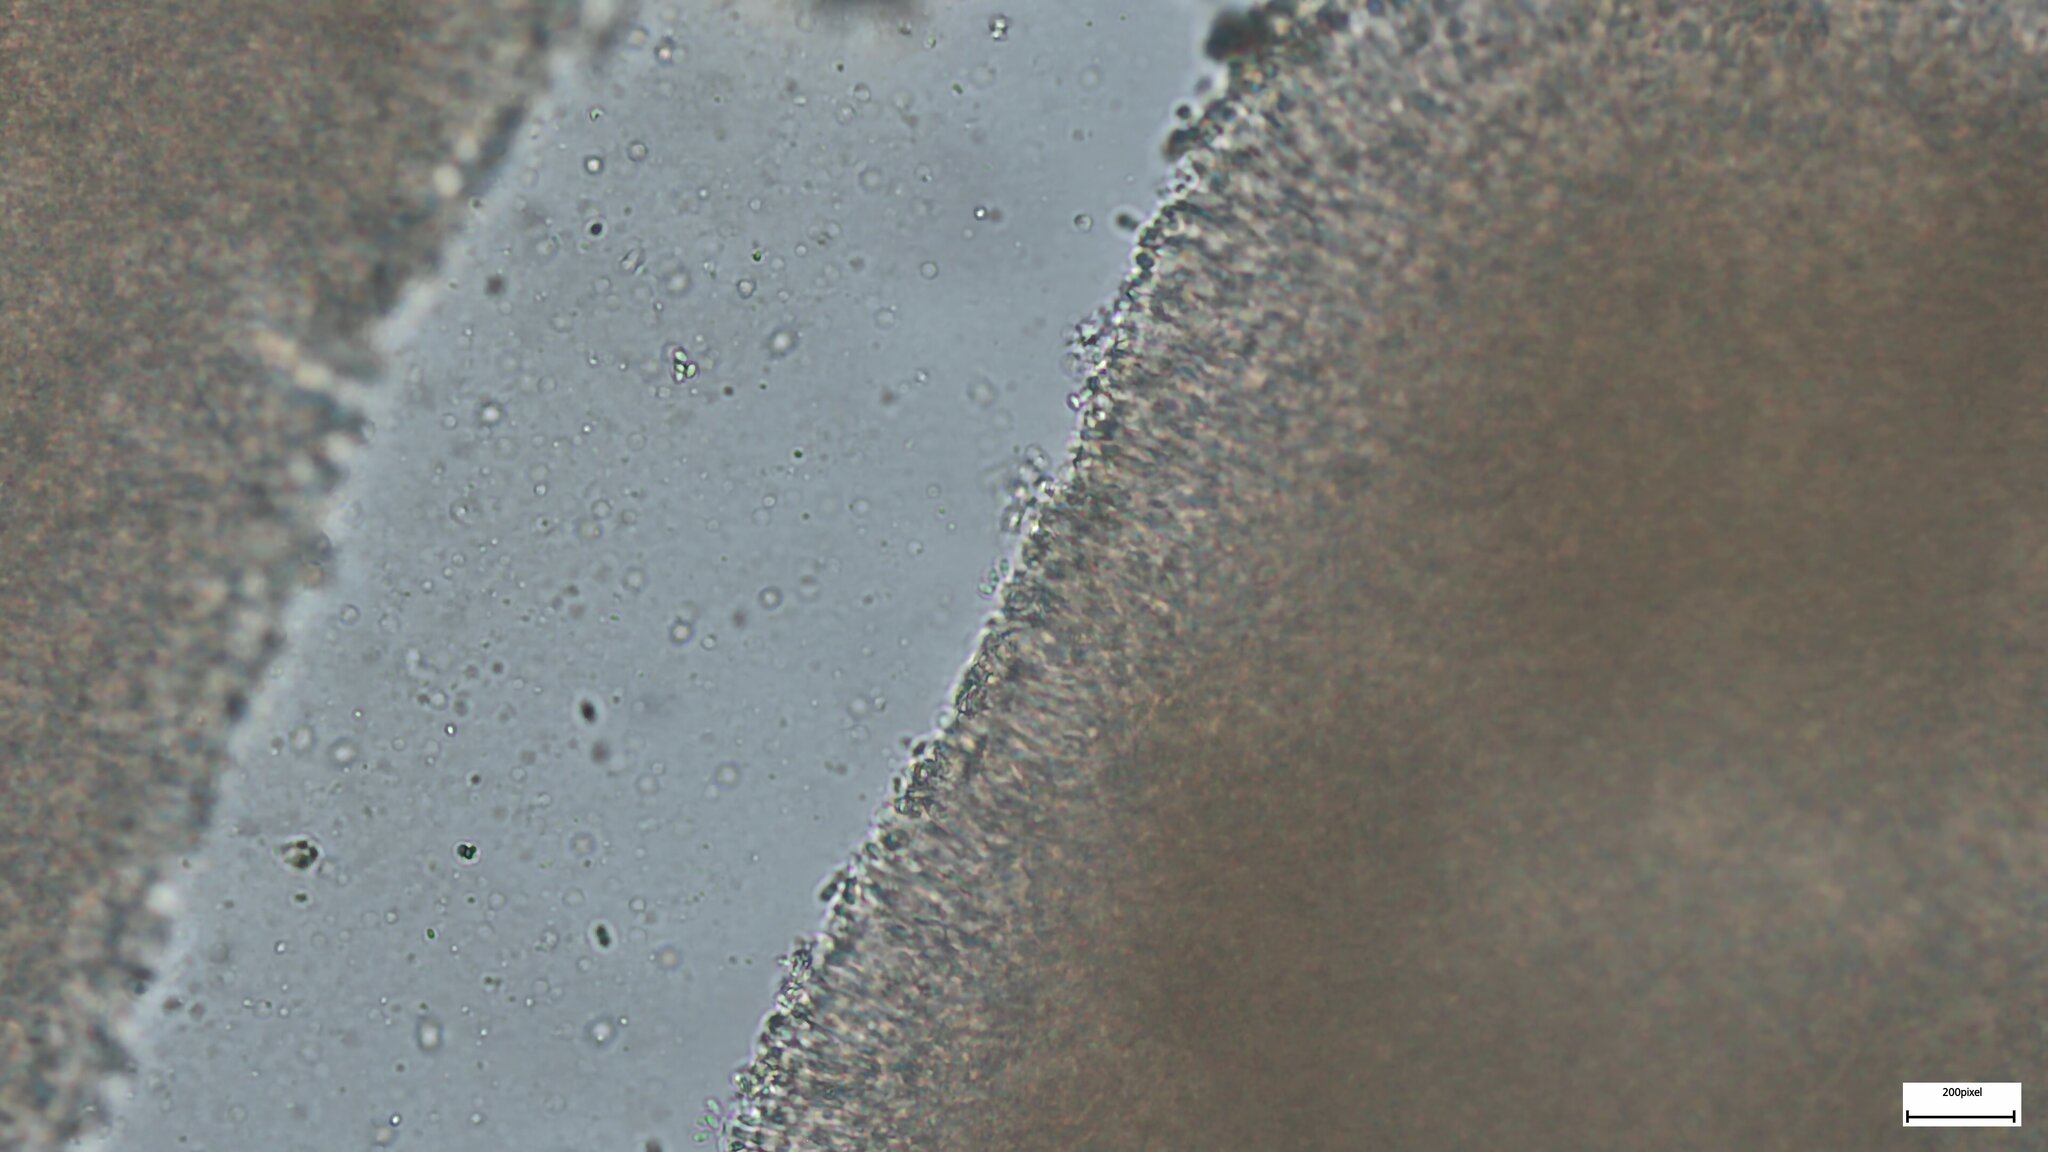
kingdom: Fungi
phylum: Basidiomycota
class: Agaricomycetes
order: Boletales
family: Paxillaceae
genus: Meiorganum
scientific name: Meiorganum curtisii
